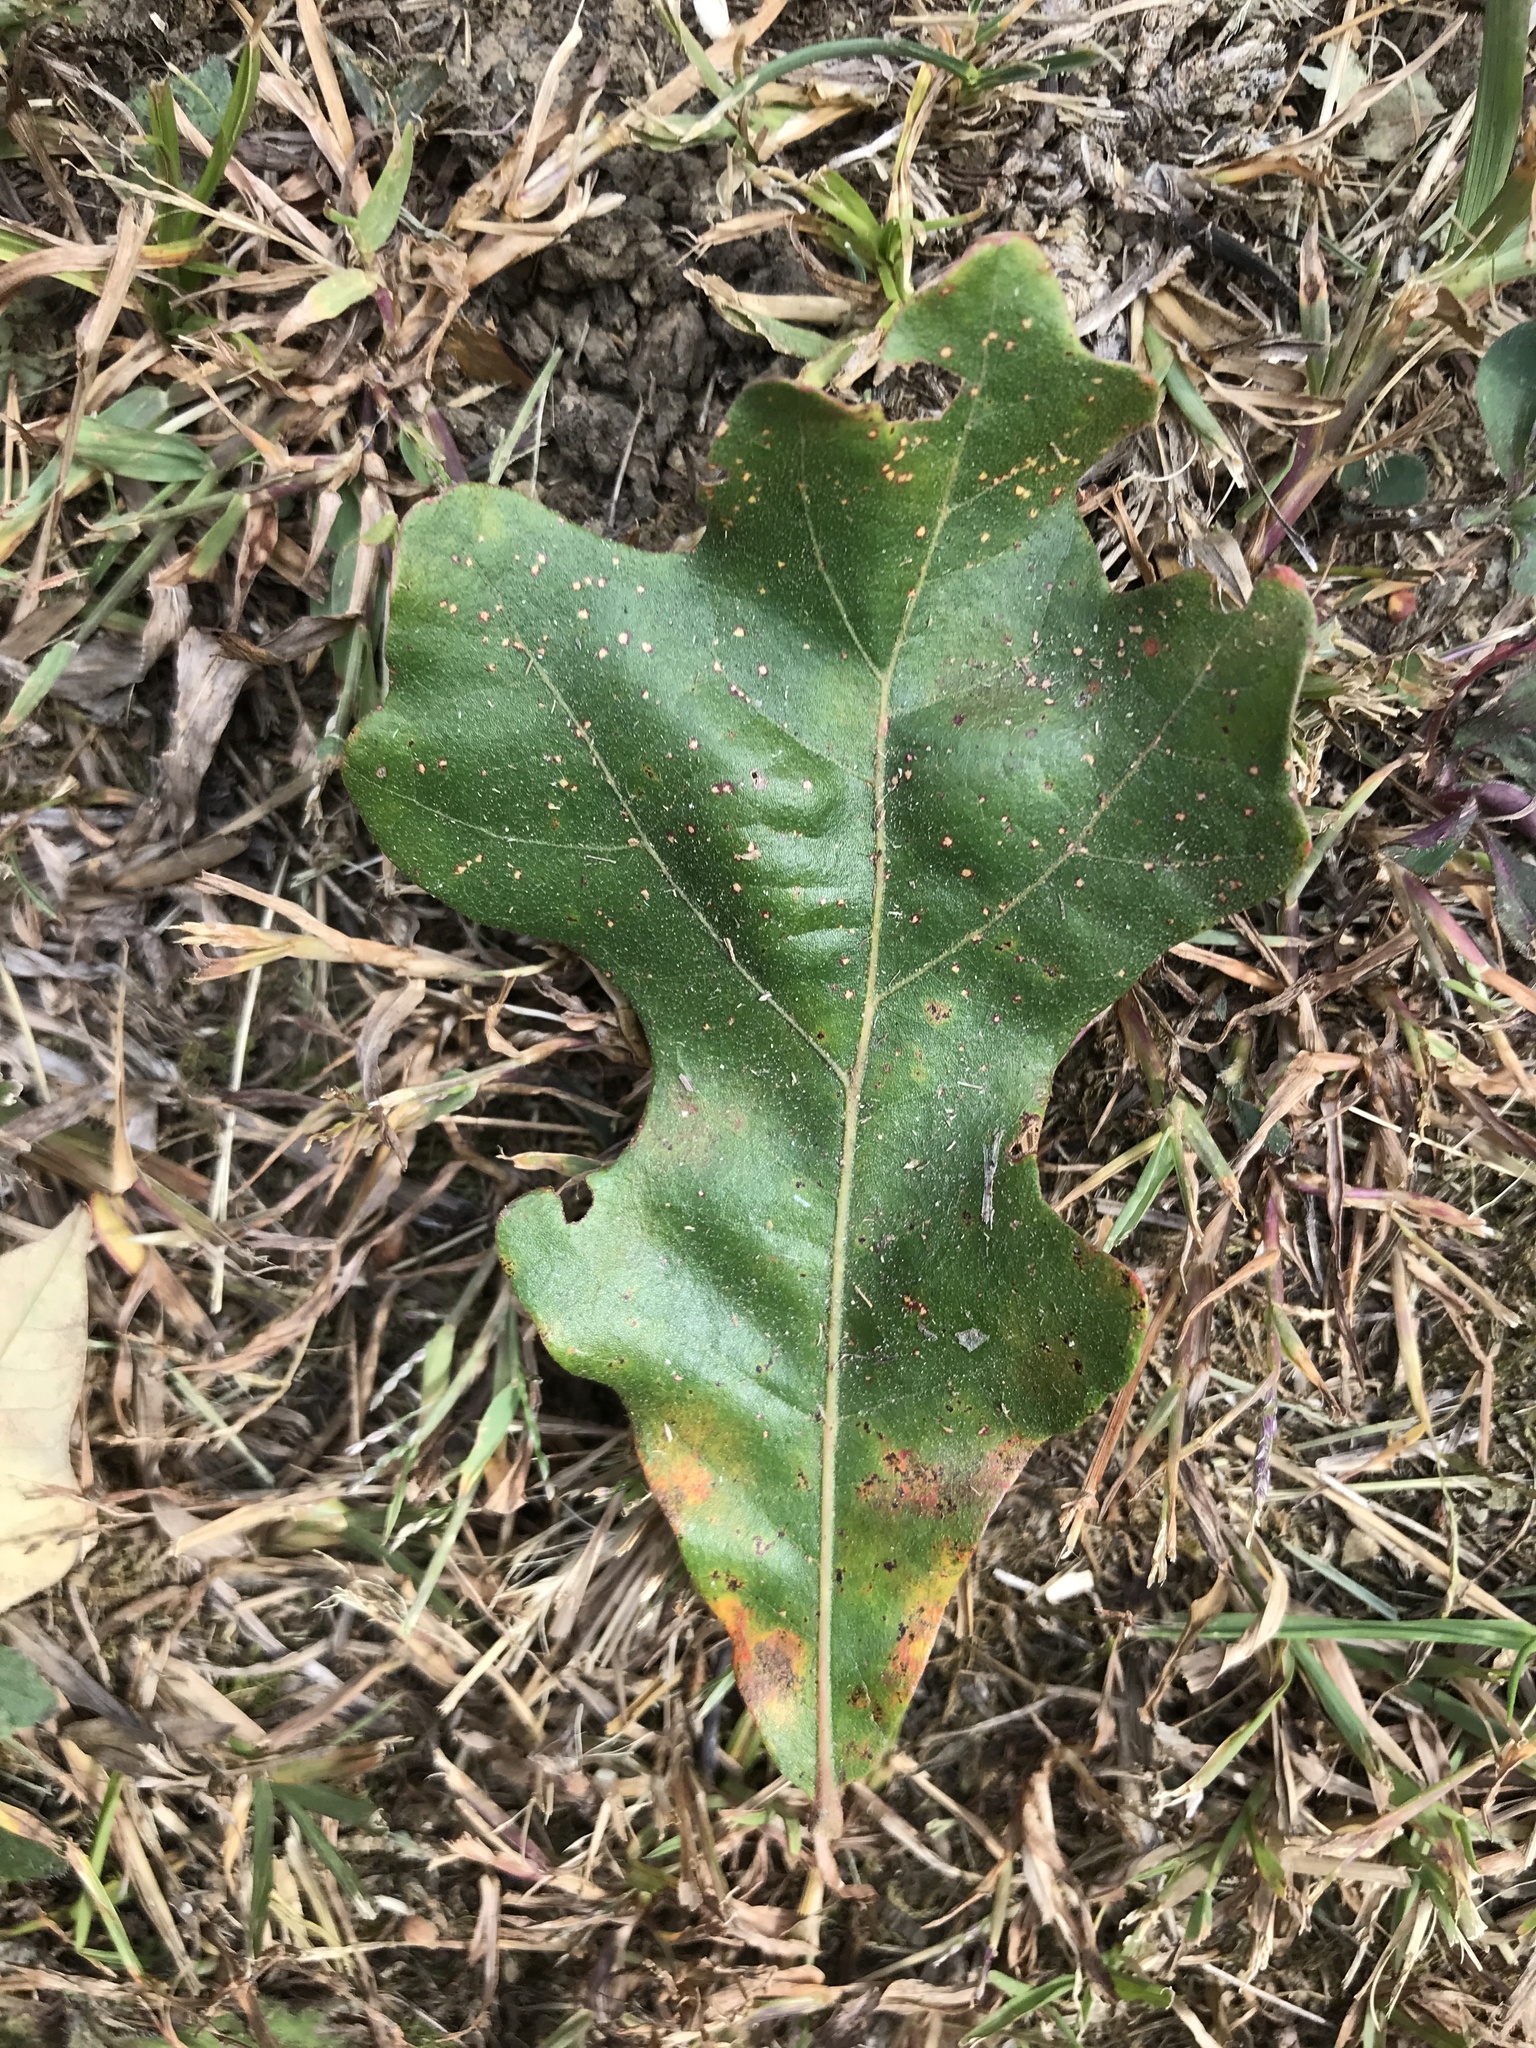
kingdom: Plantae
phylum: Tracheophyta
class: Magnoliopsida
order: Fagales
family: Fagaceae
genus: Quercus
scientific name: Quercus stellata
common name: Post oak
